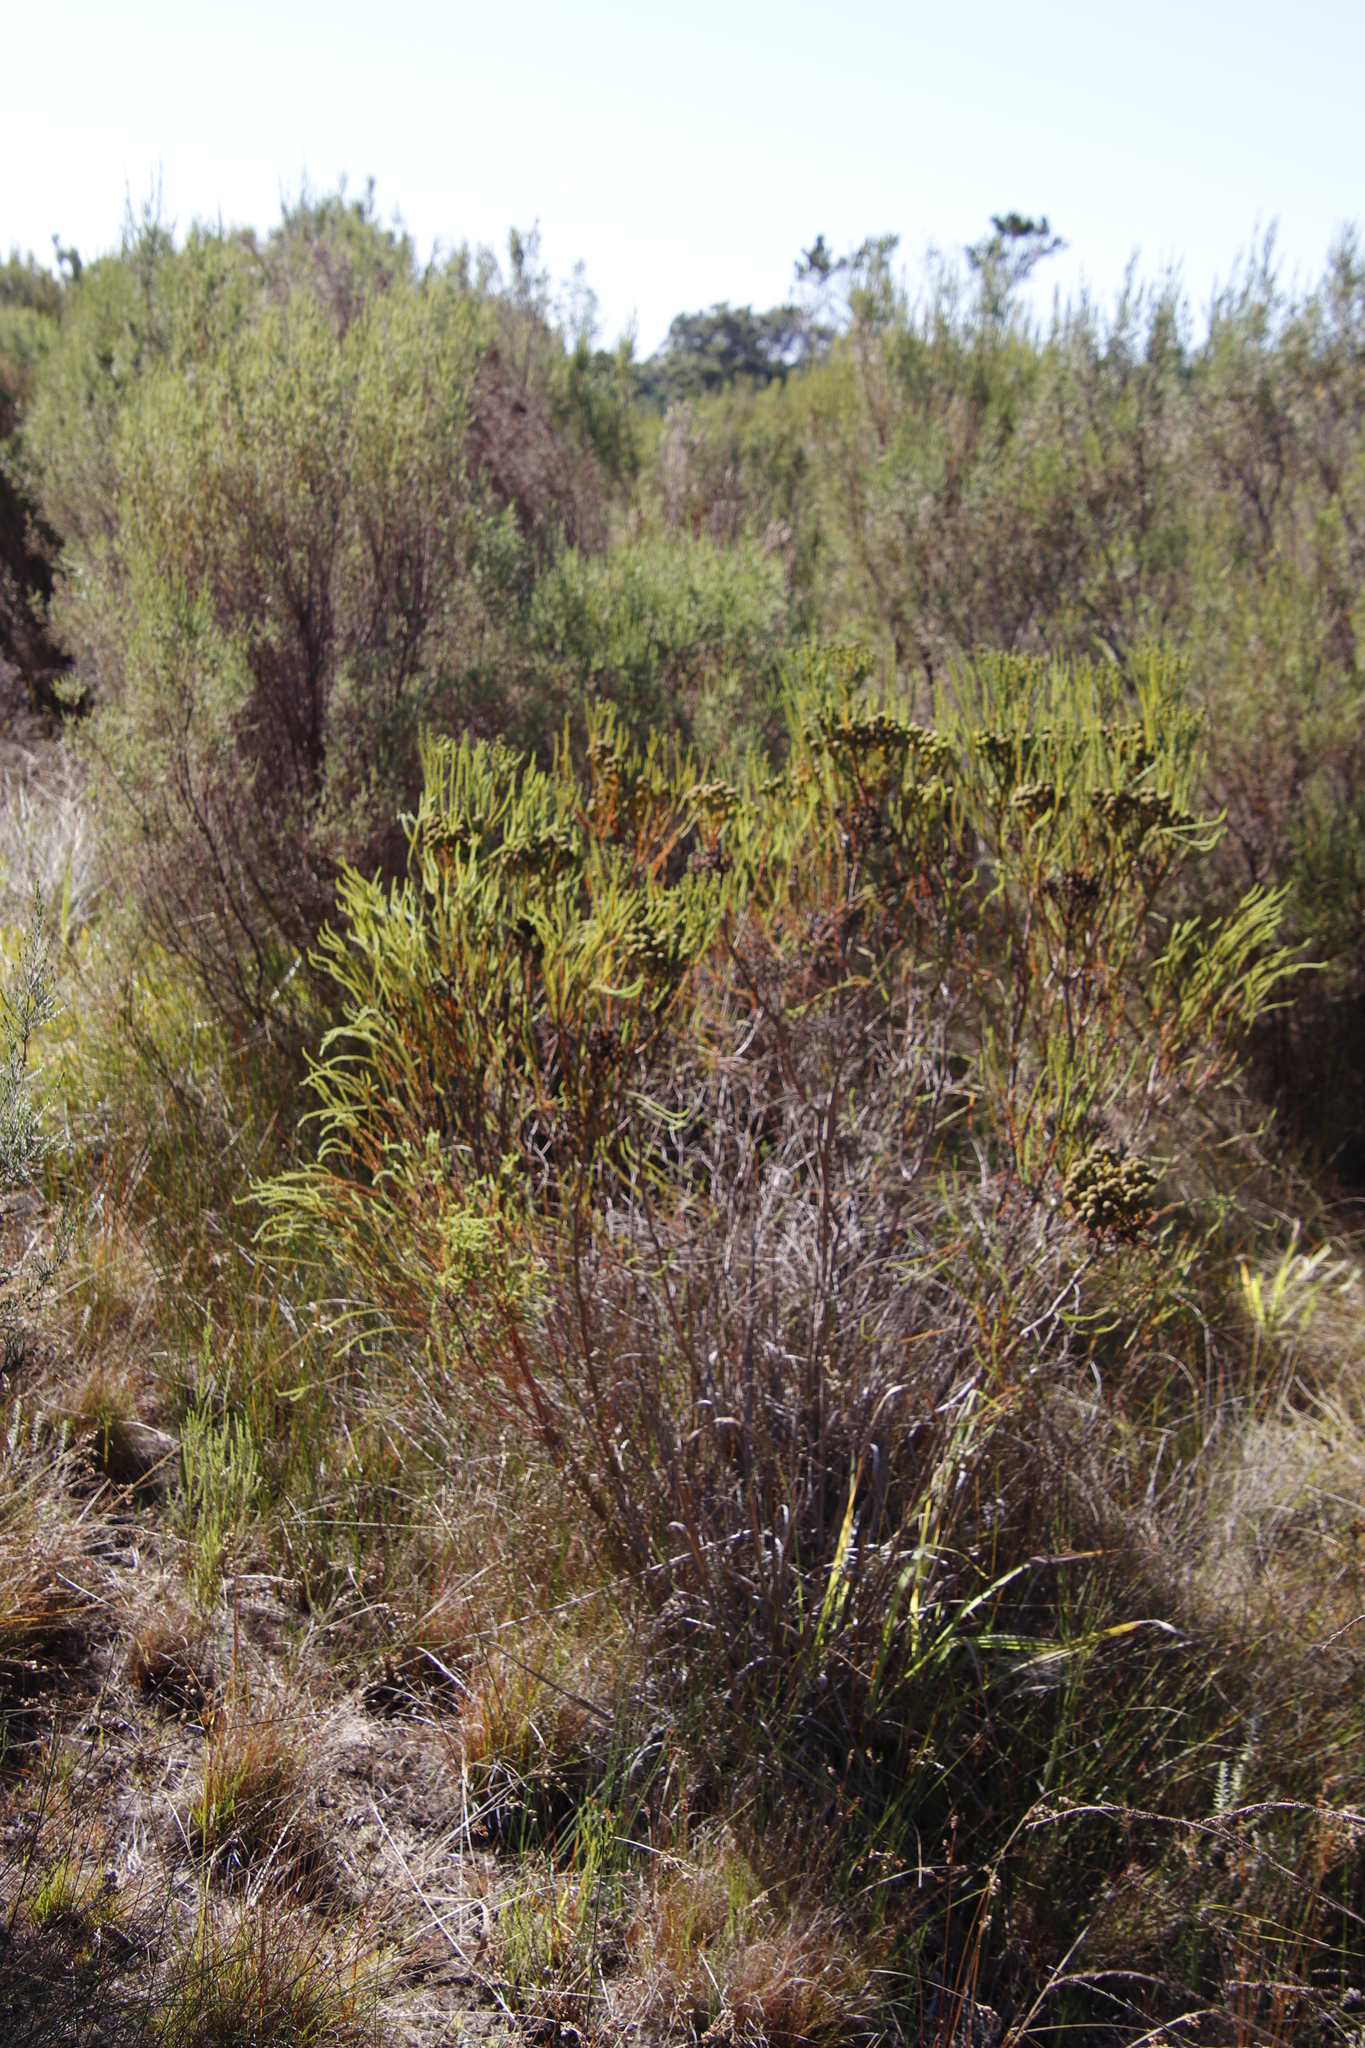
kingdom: Plantae
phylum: Tracheophyta
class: Magnoliopsida
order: Bruniales
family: Bruniaceae
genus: Berzelia
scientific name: Berzelia abrotanoides
